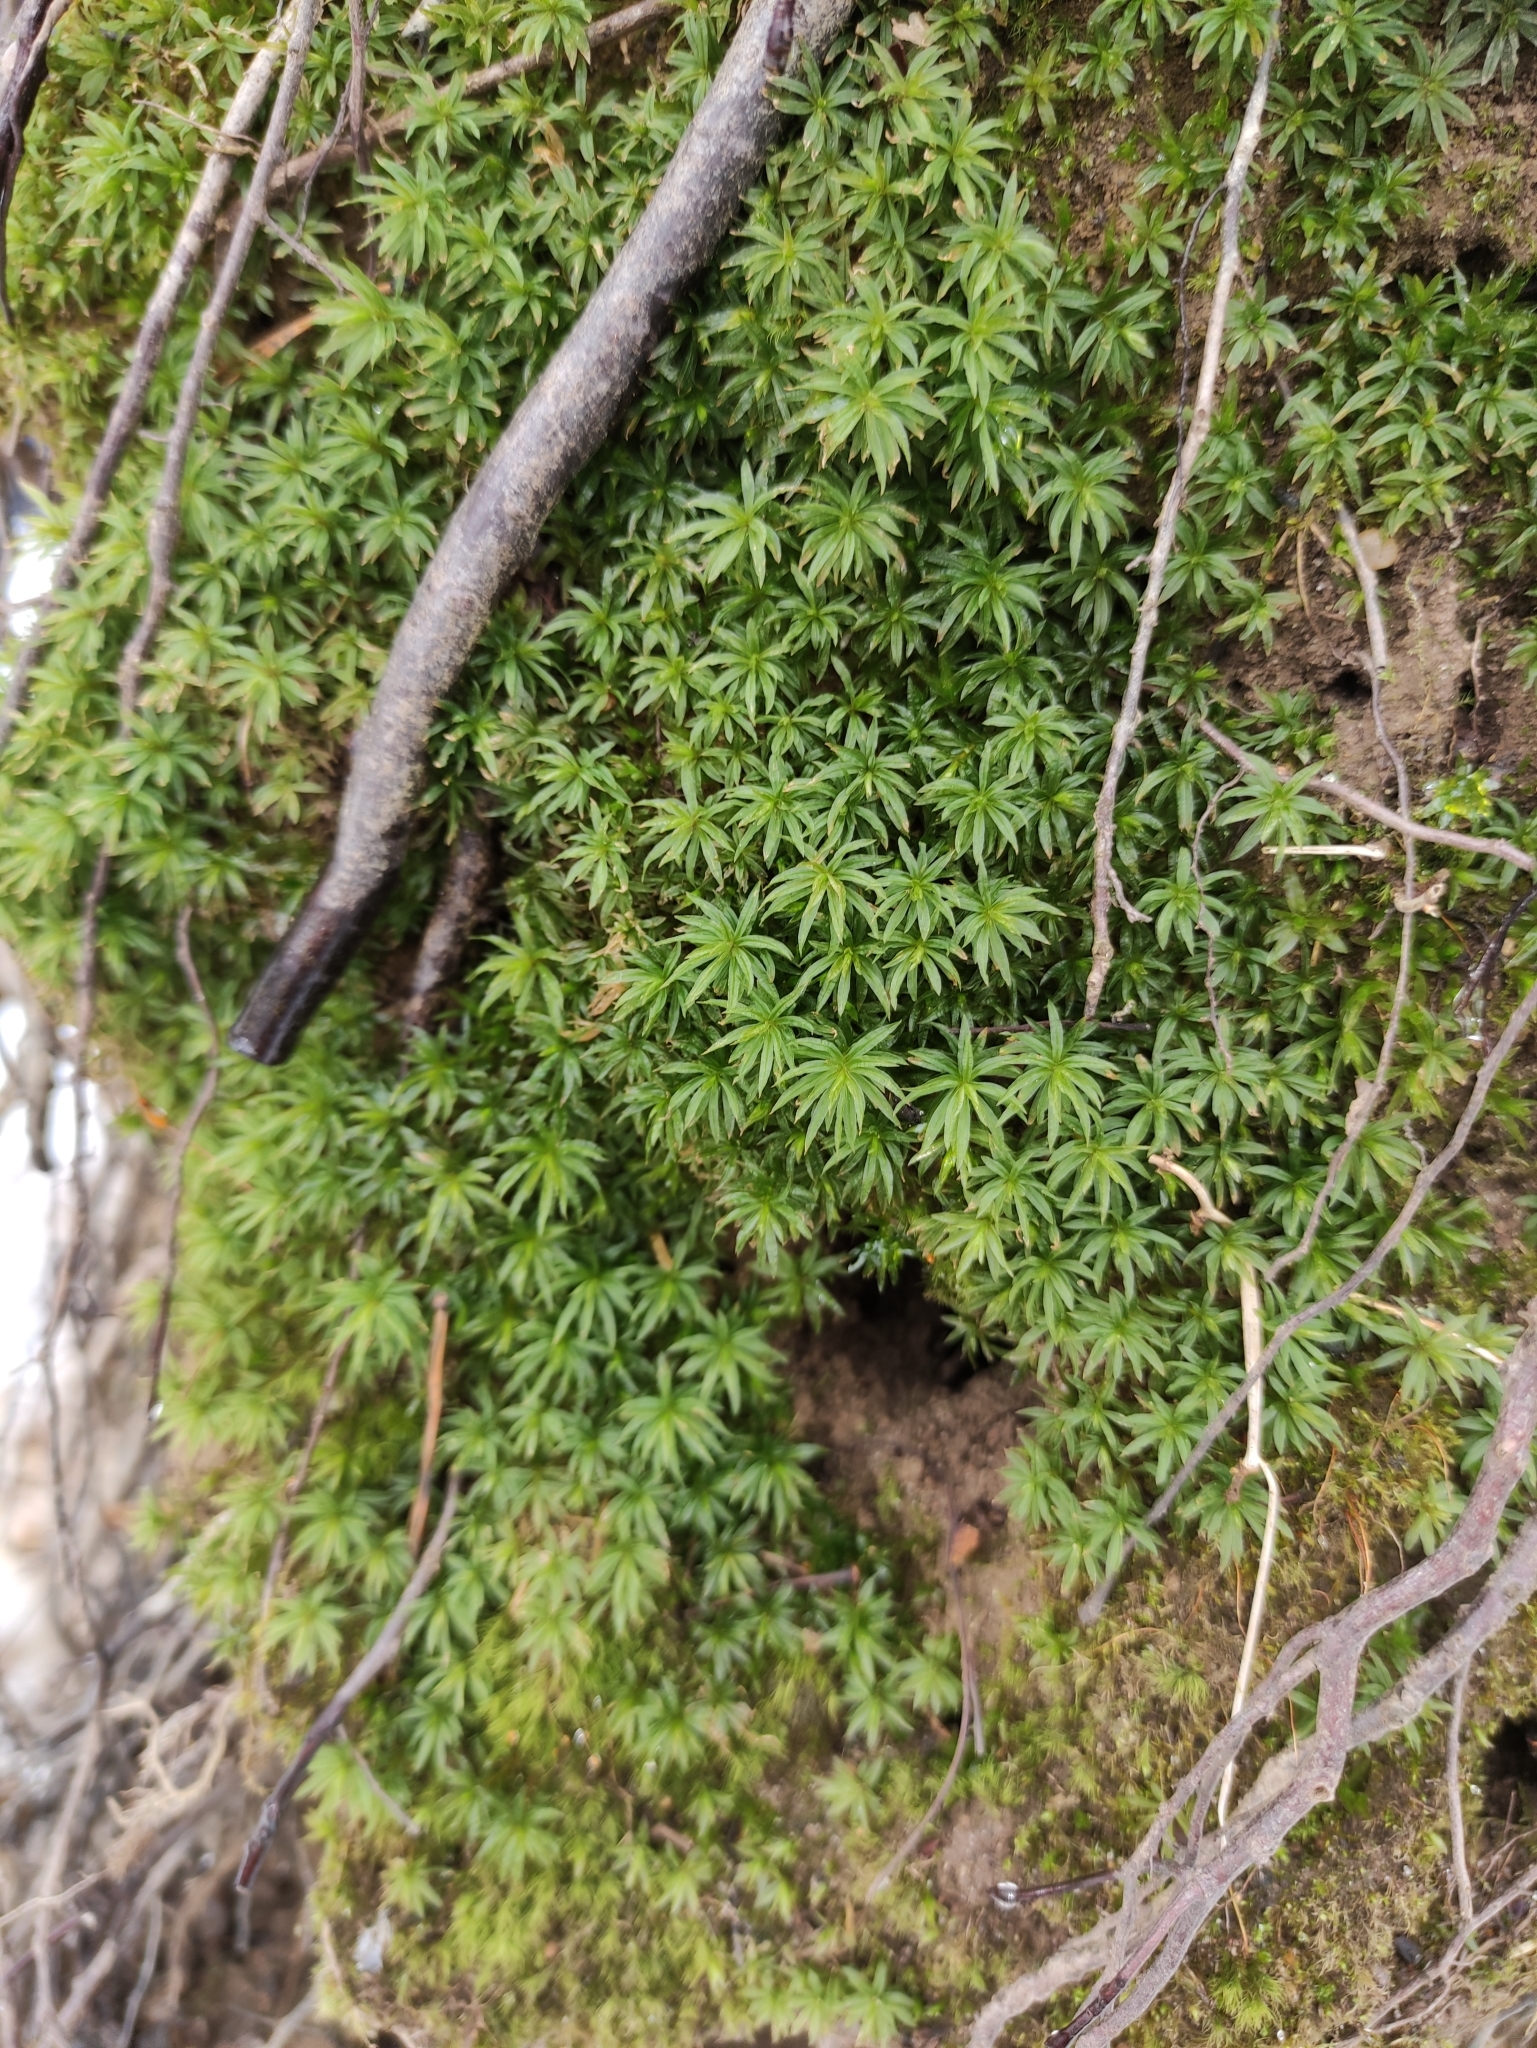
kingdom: Plantae
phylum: Bryophyta
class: Polytrichopsida
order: Polytrichales
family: Polytrichaceae
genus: Atrichum
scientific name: Atrichum undulatum
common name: Common smoothcap
